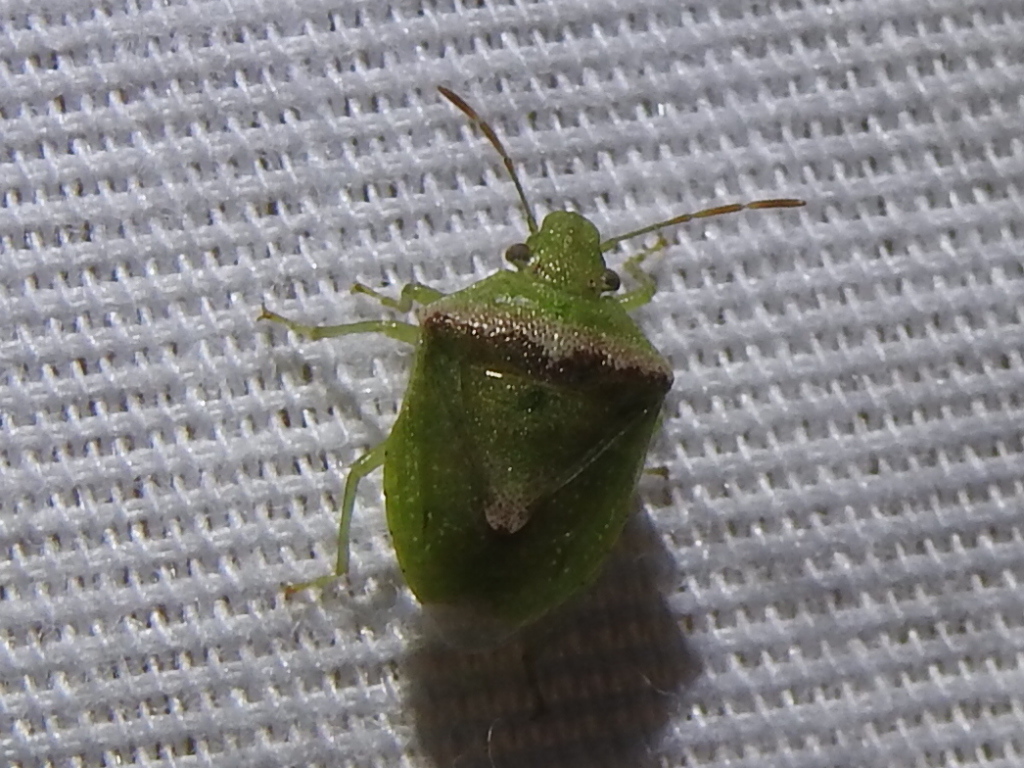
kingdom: Animalia
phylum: Arthropoda
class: Insecta
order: Hemiptera
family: Pentatomidae
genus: Cyptocephala
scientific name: Cyptocephala antiguensis
